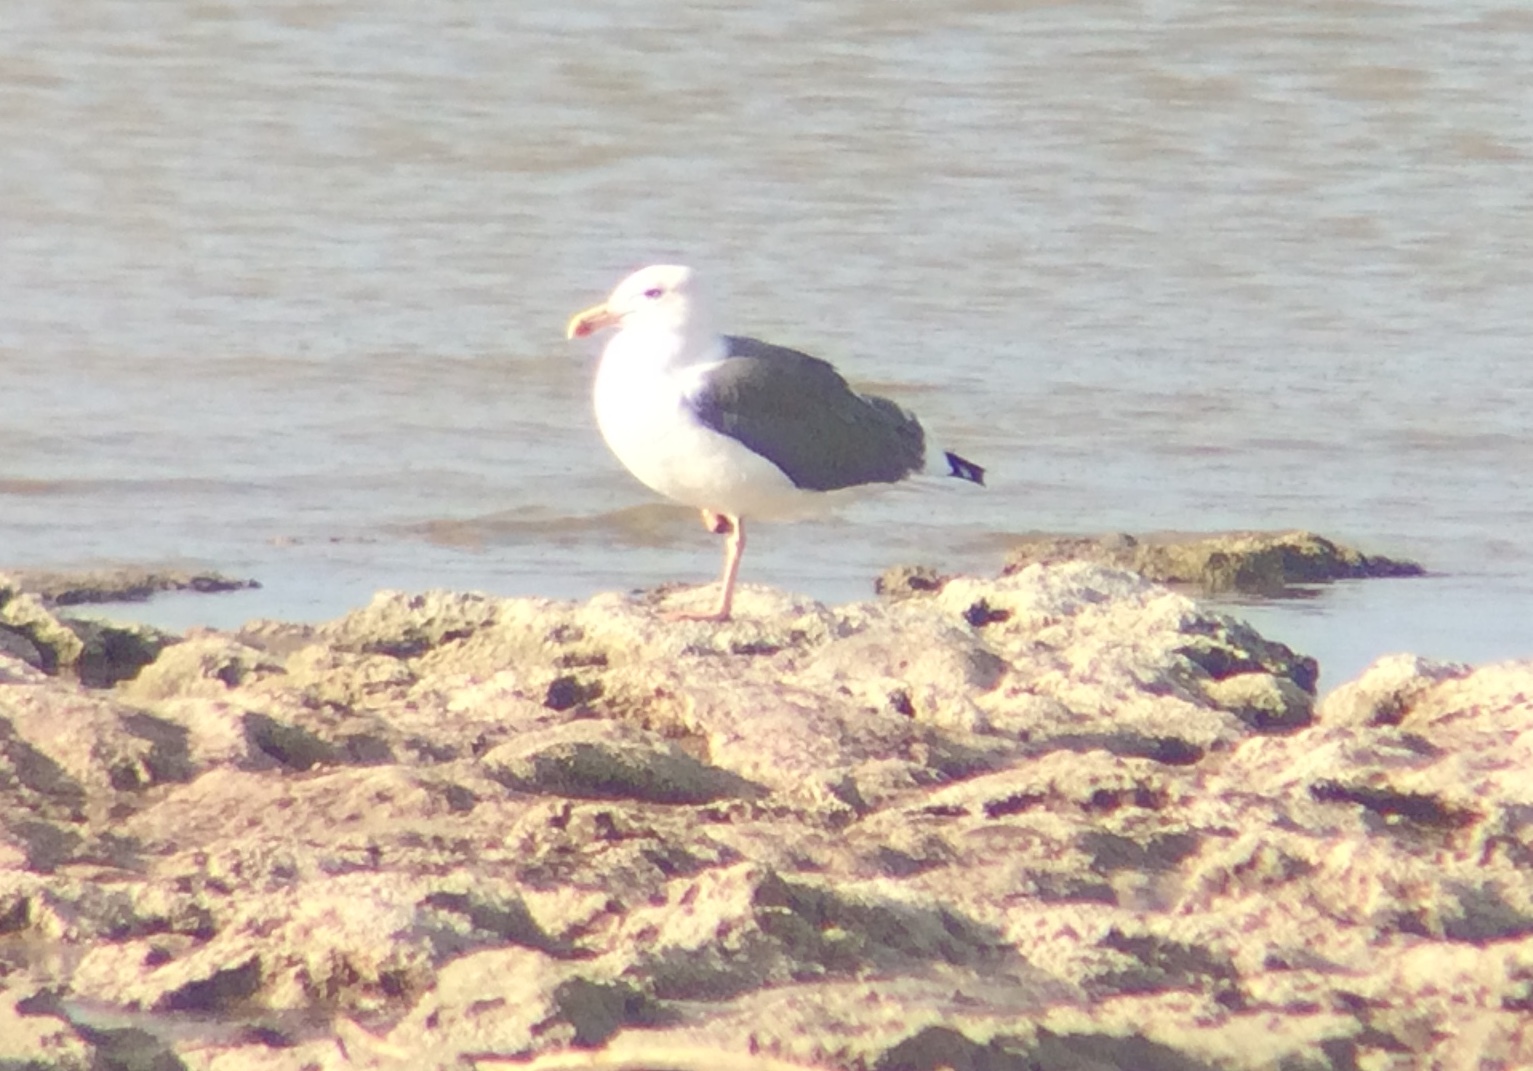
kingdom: Animalia
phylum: Chordata
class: Aves
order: Charadriiformes
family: Laridae
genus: Larus
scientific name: Larus livens
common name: Yellow-footed gull
